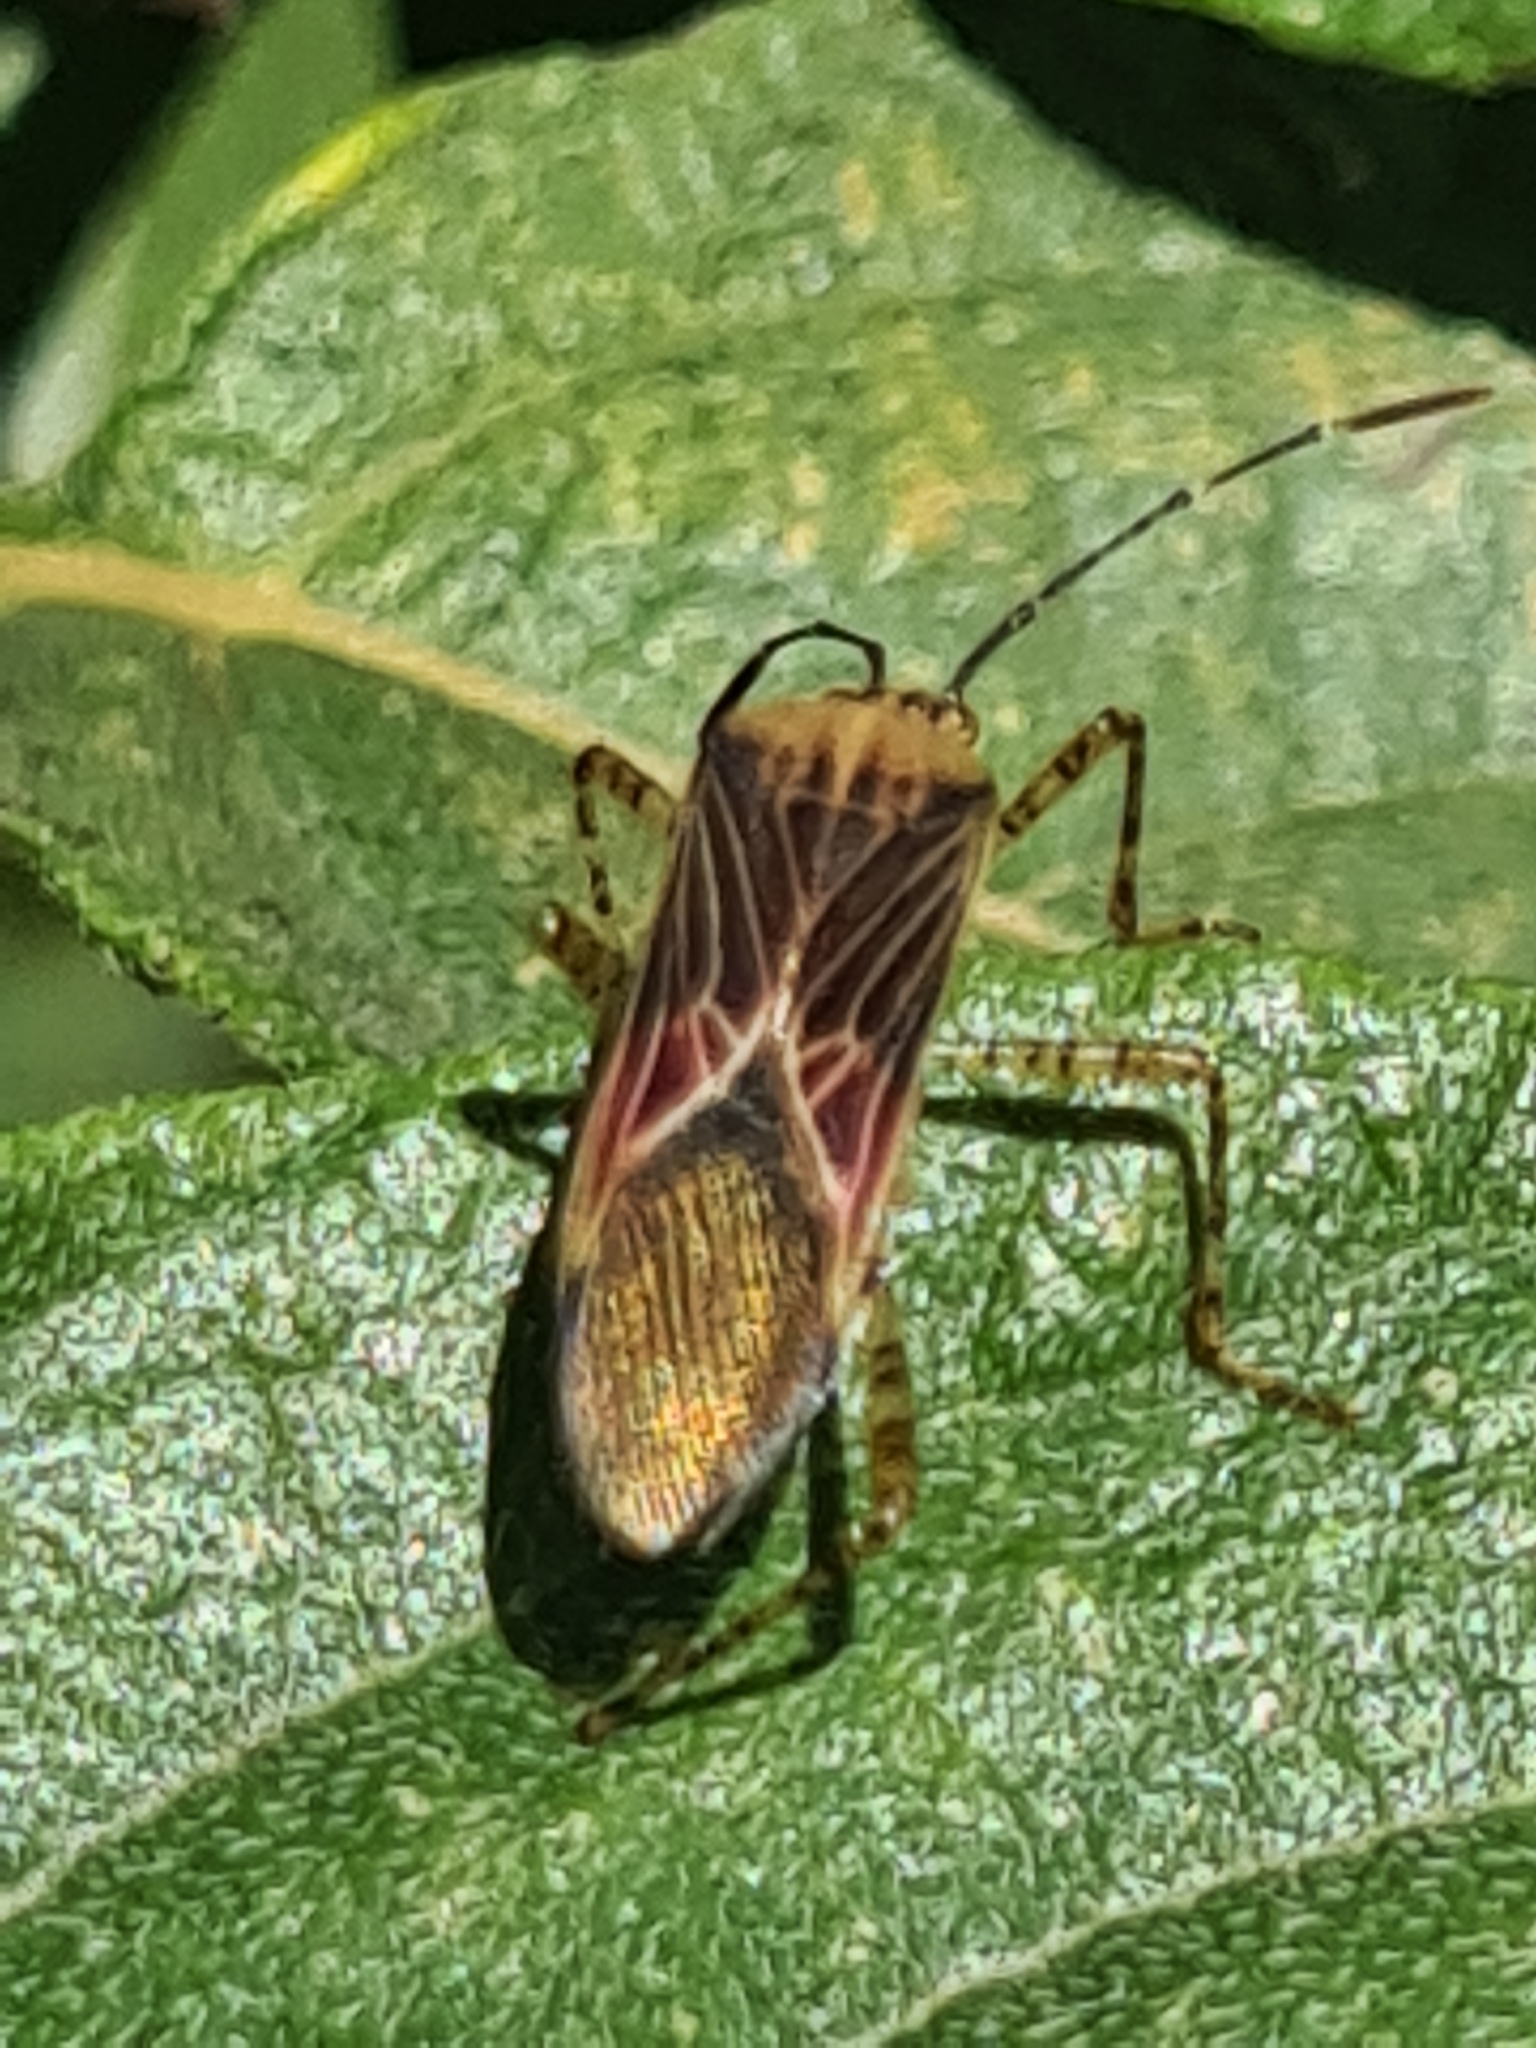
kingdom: Animalia
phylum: Arthropoda
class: Insecta
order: Hemiptera
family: Coreidae
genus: Hypselonotus
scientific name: Hypselonotus fulvus
